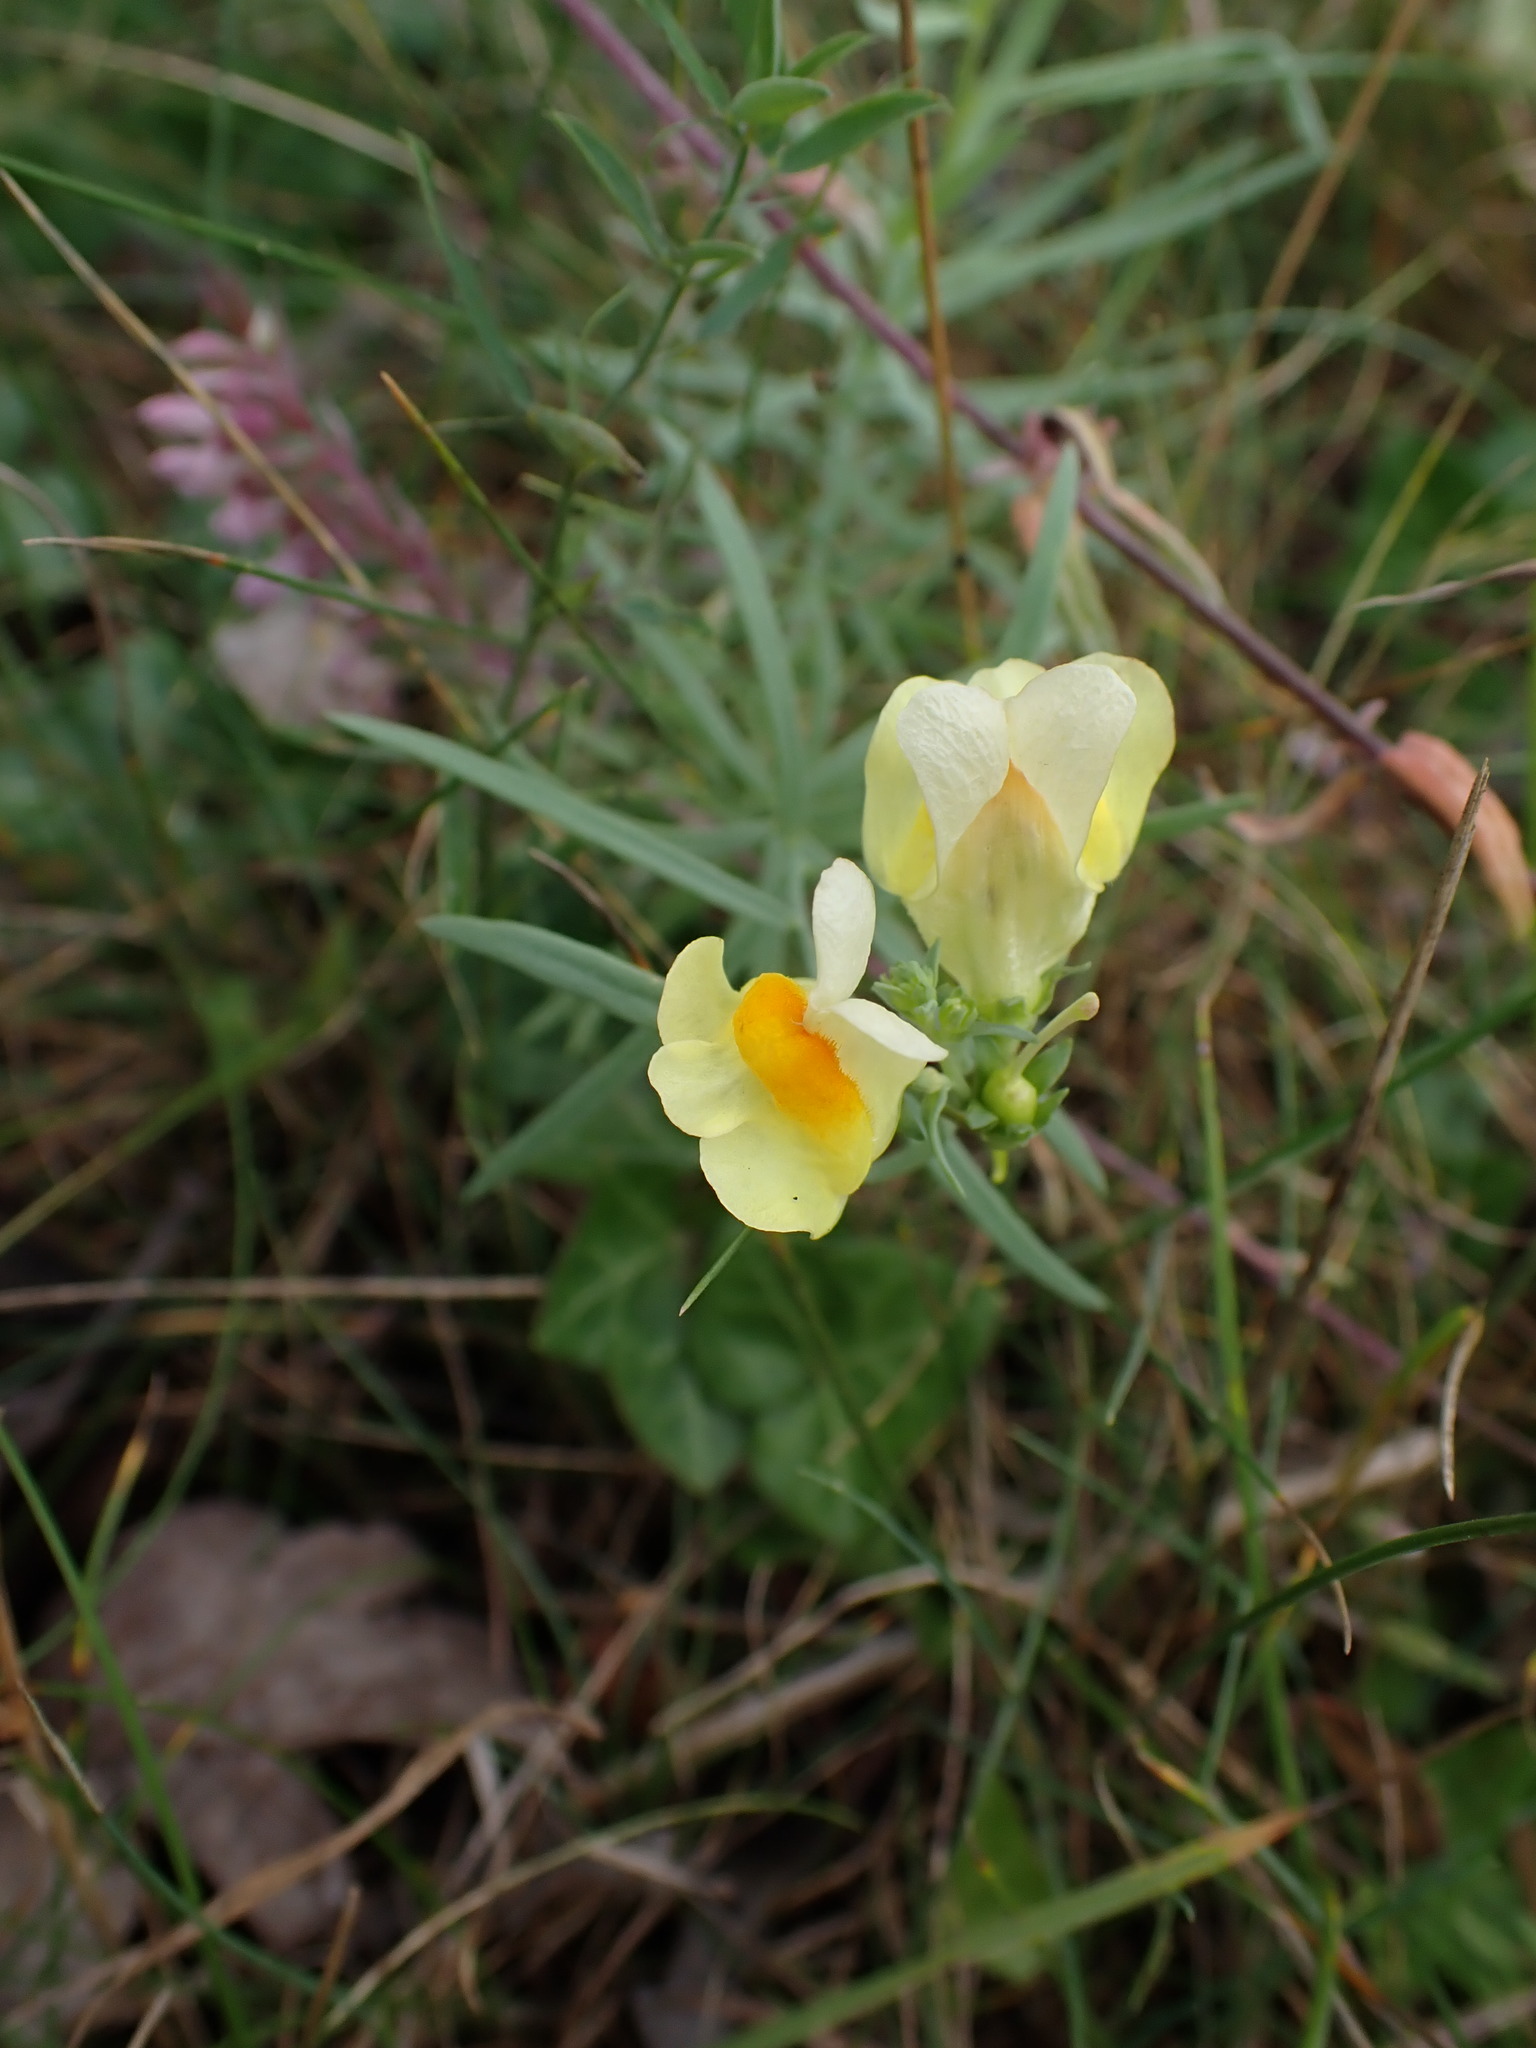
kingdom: Plantae
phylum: Tracheophyta
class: Magnoliopsida
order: Lamiales
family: Plantaginaceae
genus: Linaria
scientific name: Linaria vulgaris
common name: Butter and eggs
